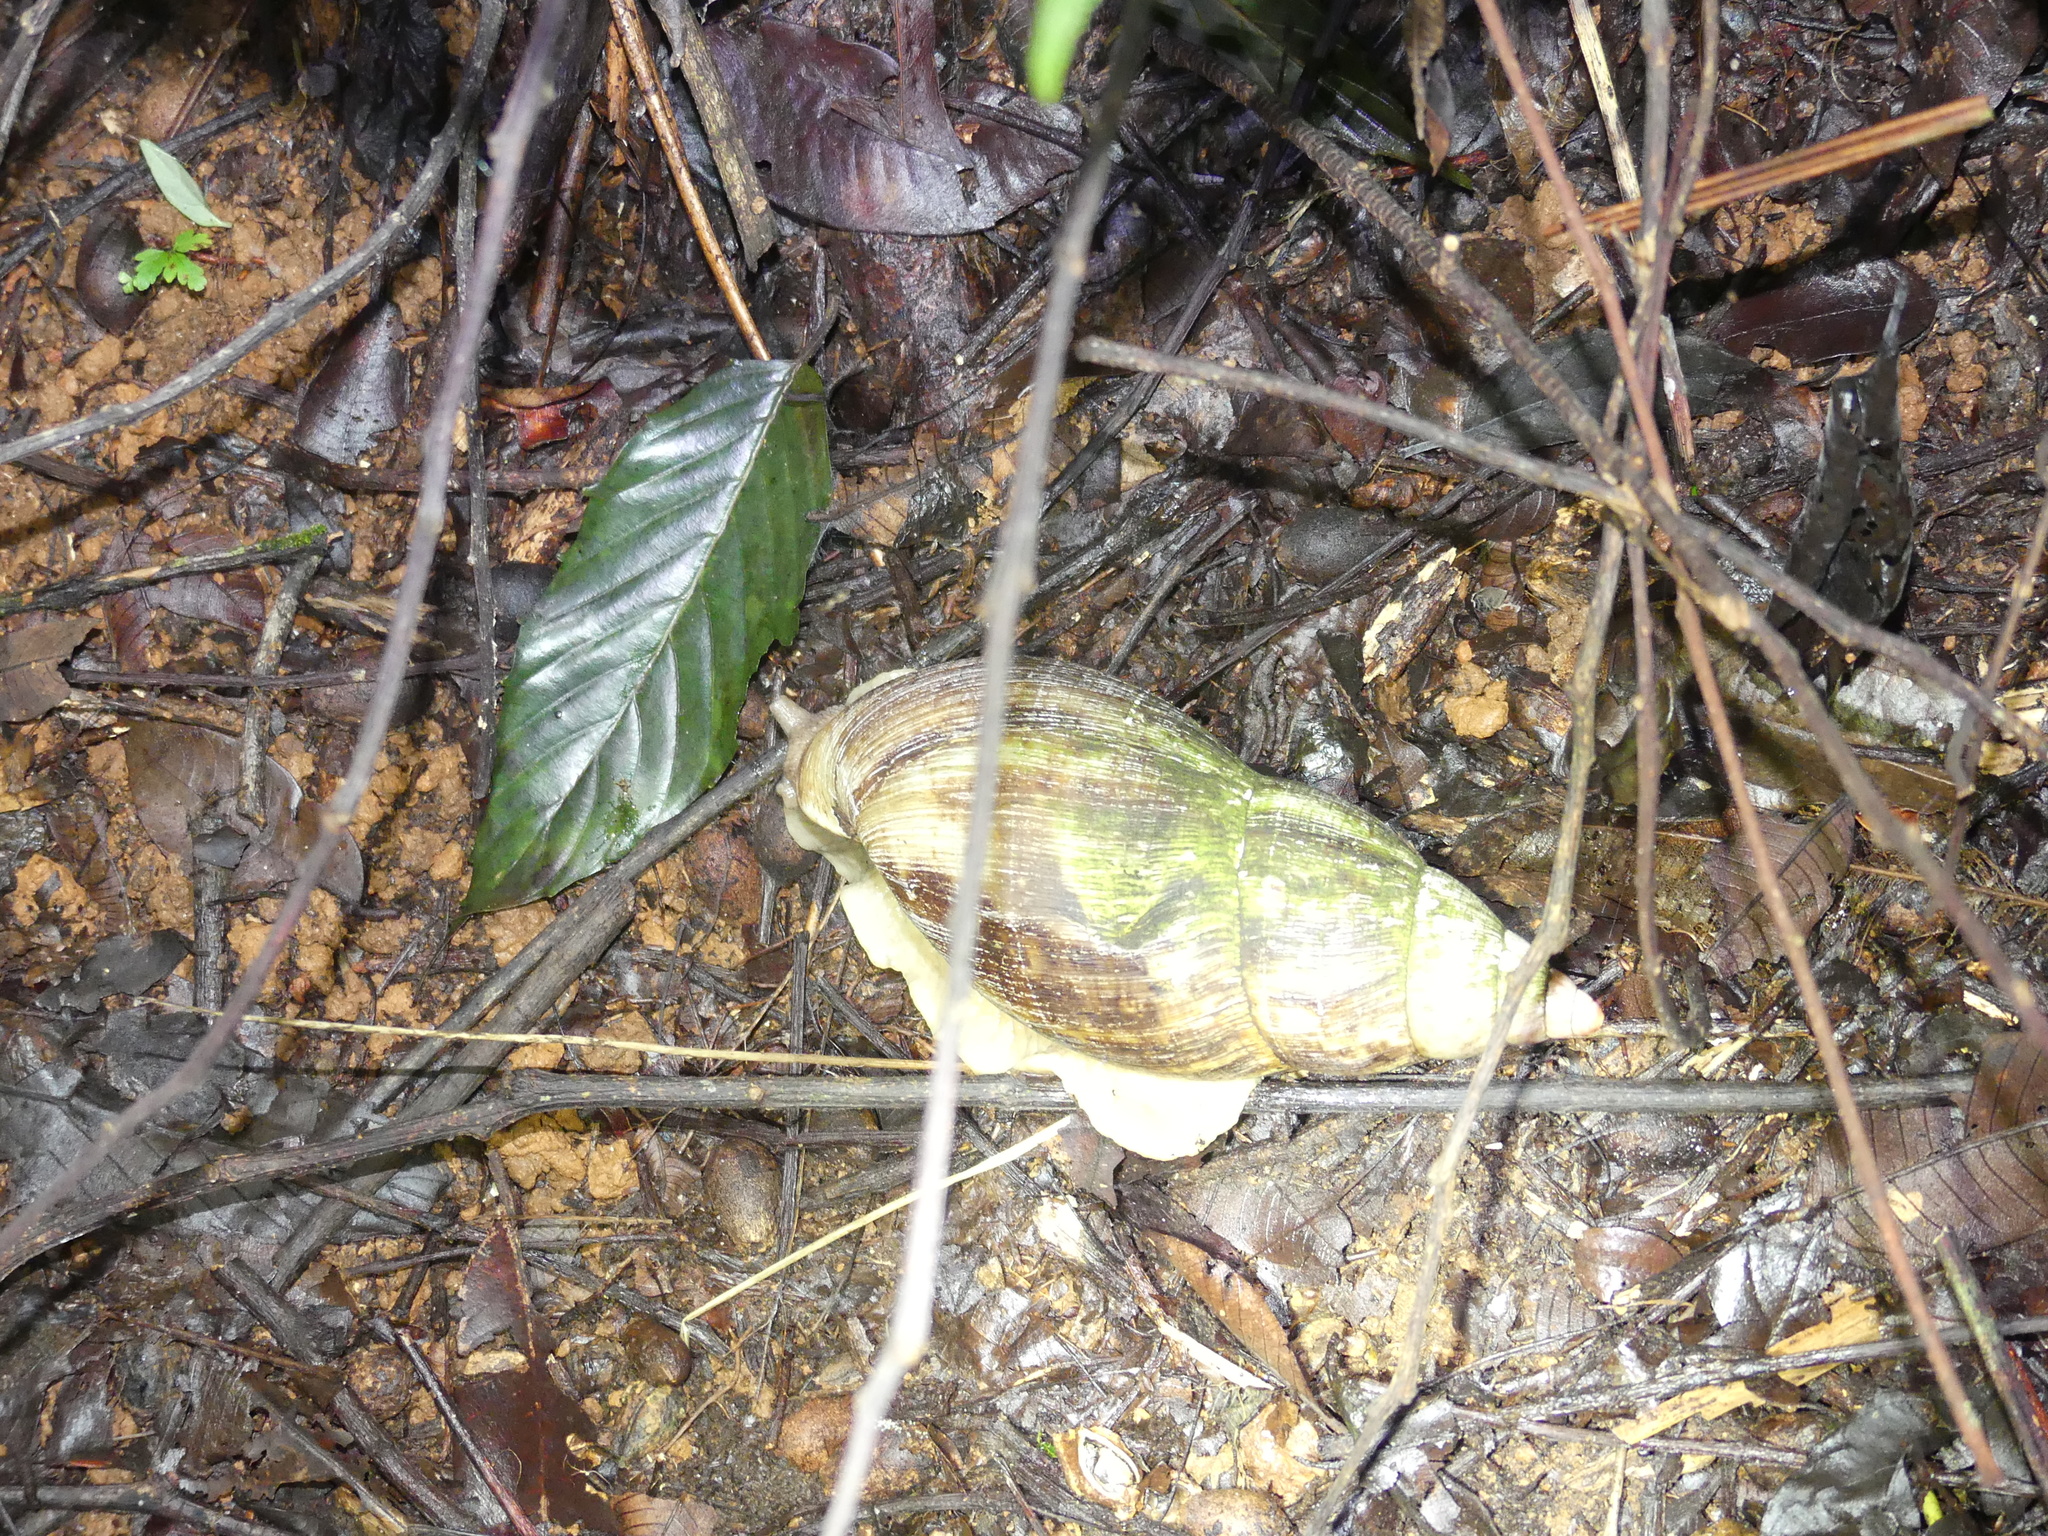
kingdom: Animalia
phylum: Mollusca
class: Gastropoda
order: Stylommatophora
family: Achatinidae
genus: Lissachatina
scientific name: Lissachatina reticulata
